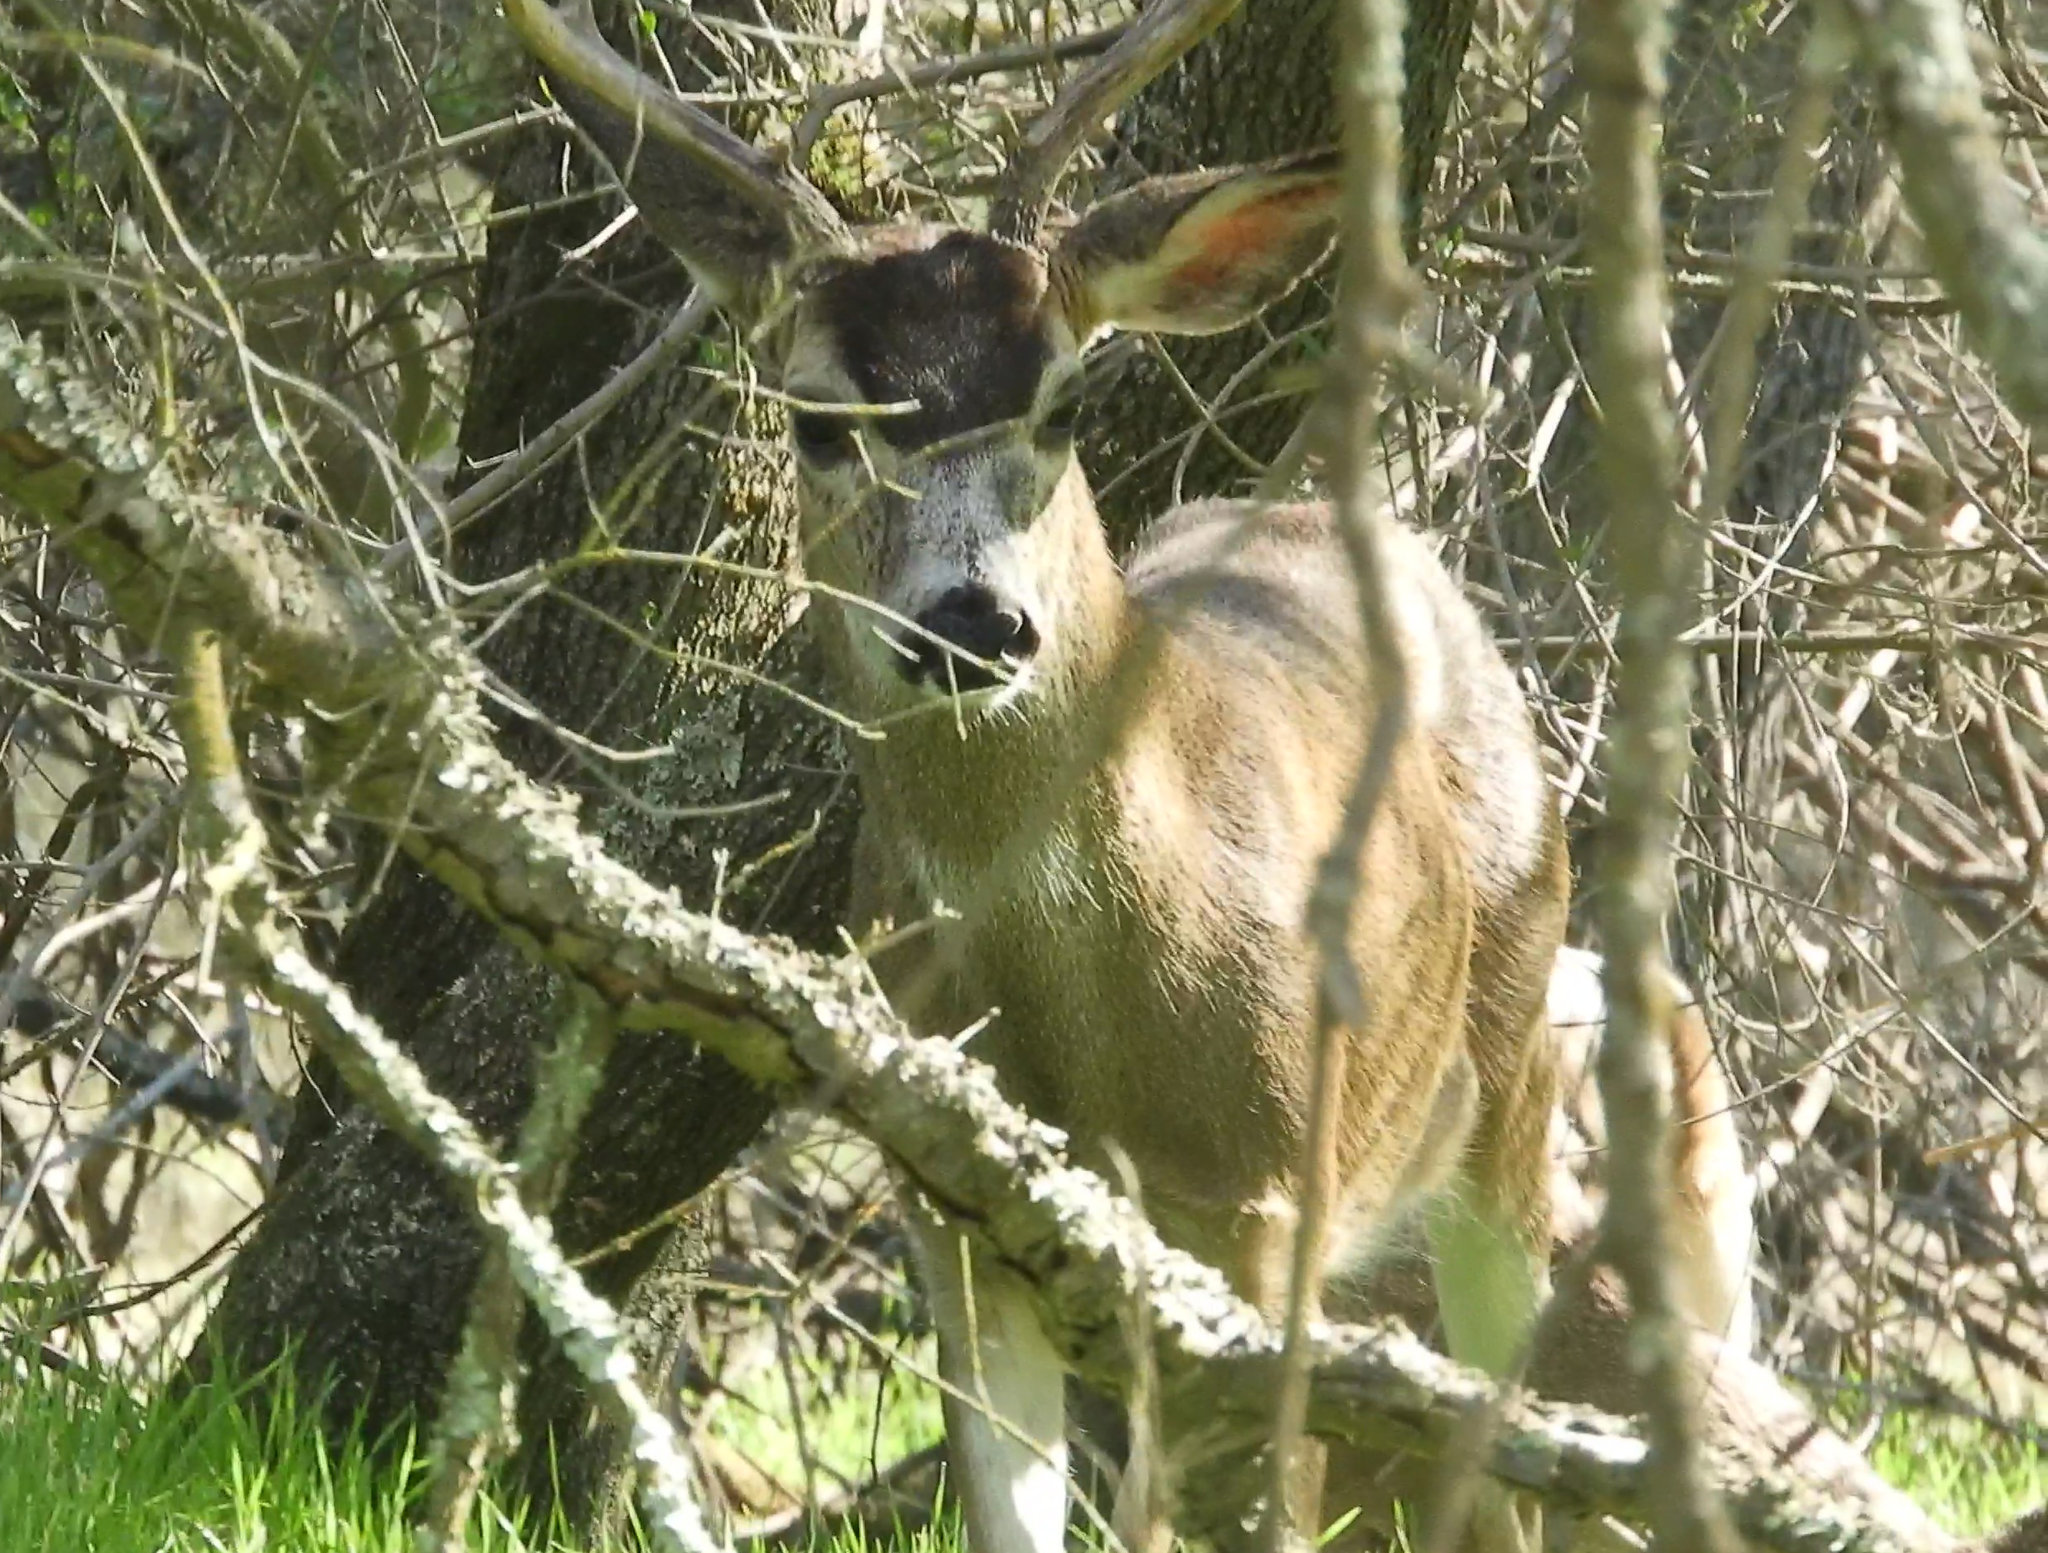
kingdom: Animalia
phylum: Chordata
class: Mammalia
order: Artiodactyla
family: Cervidae
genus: Odocoileus
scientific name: Odocoileus hemionus
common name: Mule deer
